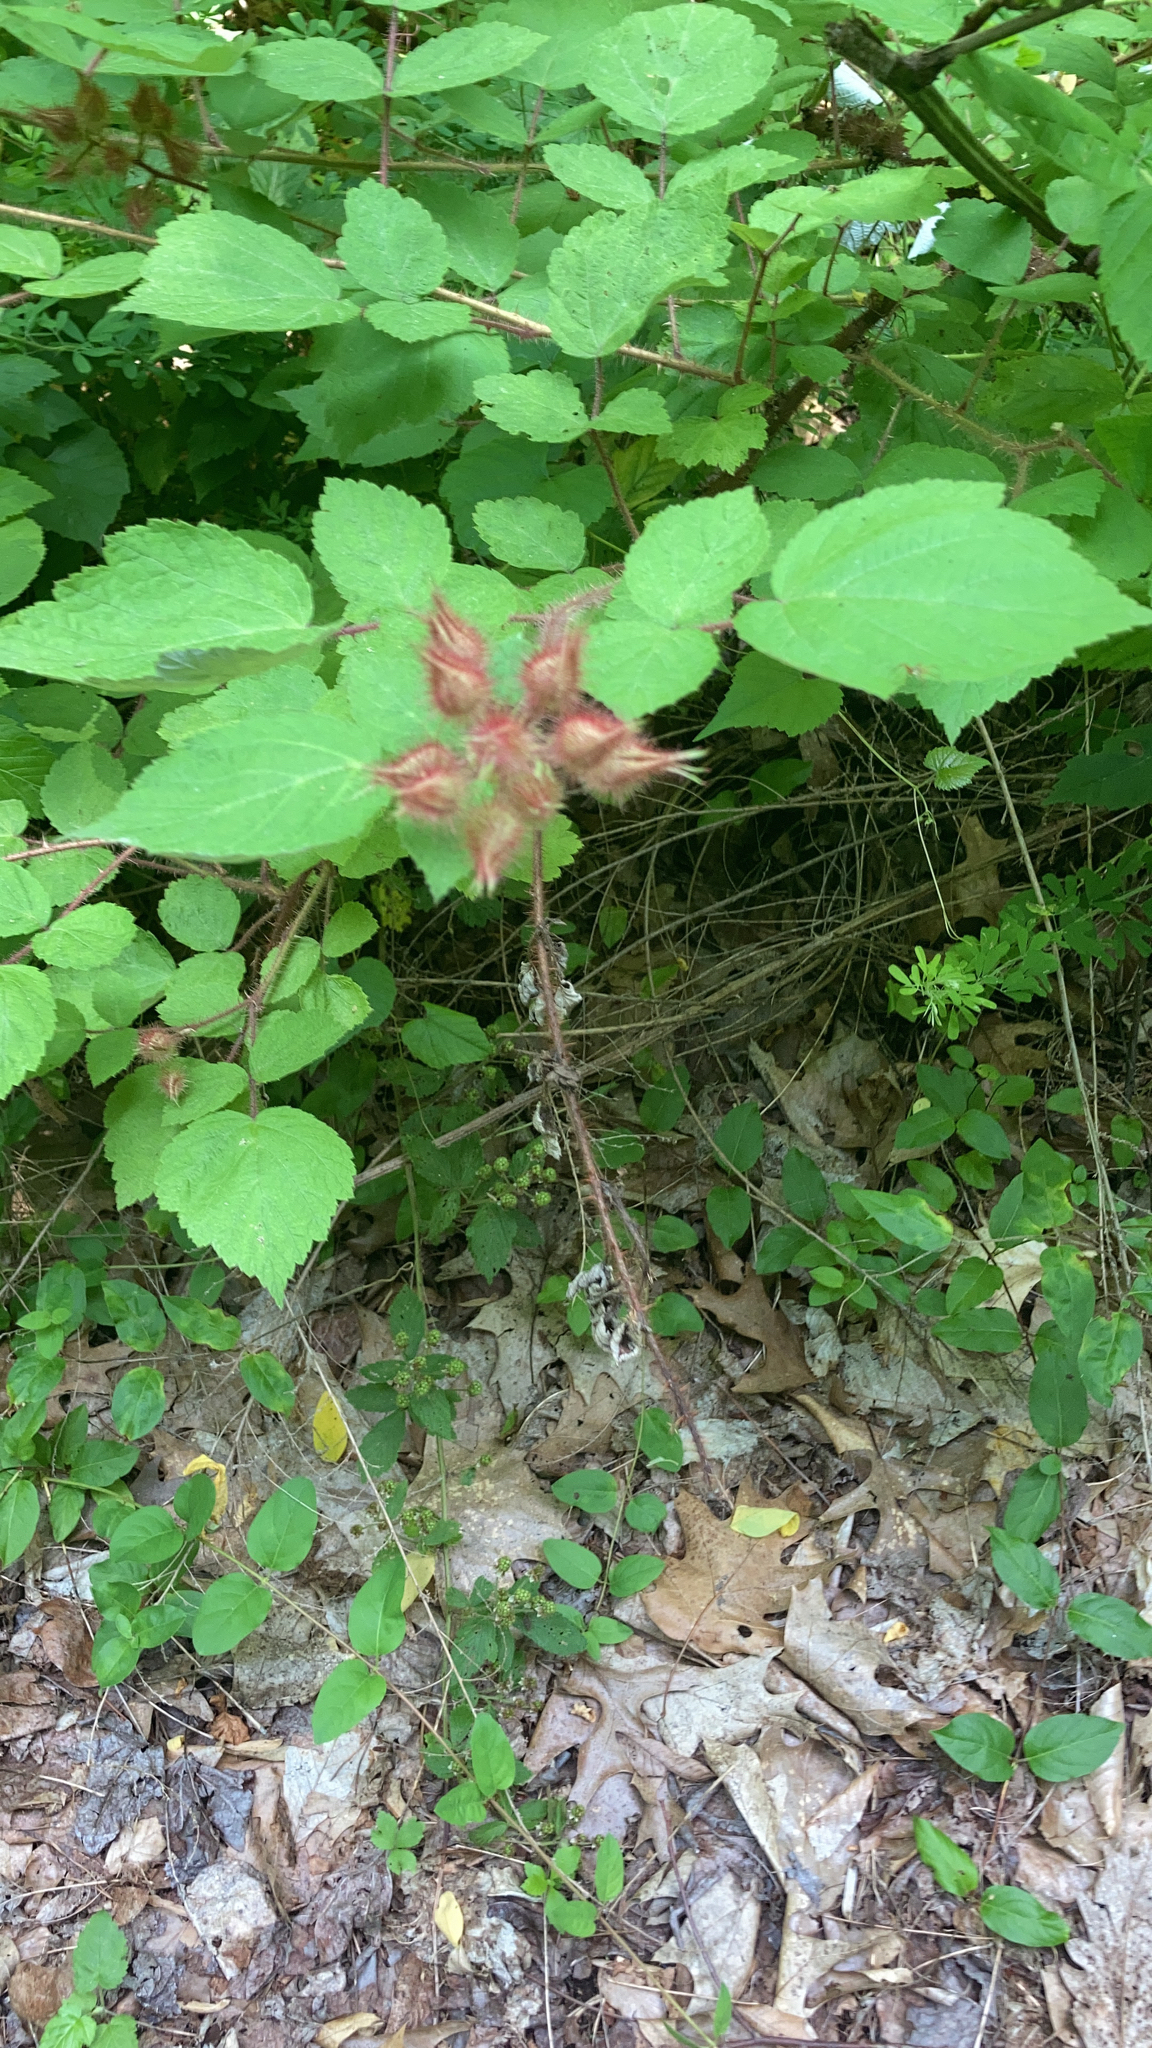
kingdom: Plantae
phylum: Tracheophyta
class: Magnoliopsida
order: Rosales
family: Rosaceae
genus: Rubus
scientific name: Rubus phoenicolasius
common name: Japanese wineberry
